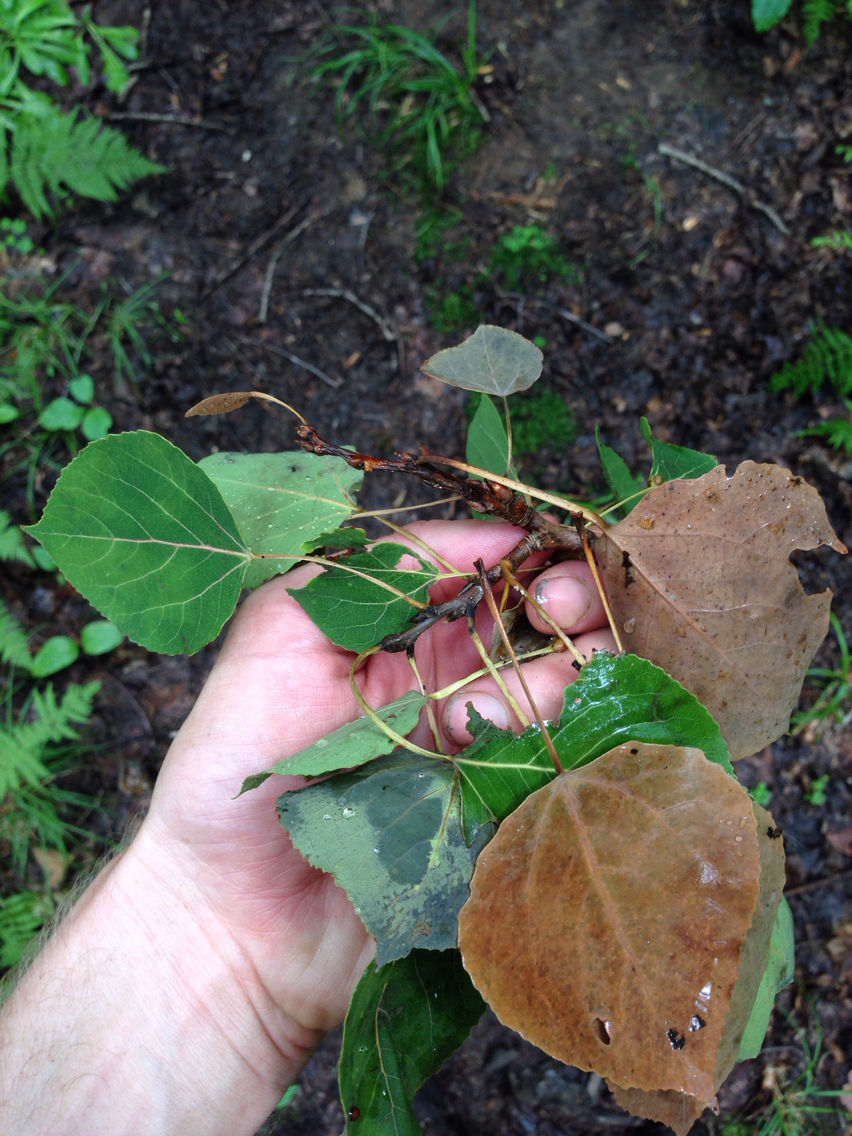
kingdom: Plantae
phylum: Tracheophyta
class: Magnoliopsida
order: Malpighiales
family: Salicaceae
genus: Populus
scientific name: Populus grandidentata
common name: Bigtooth aspen
